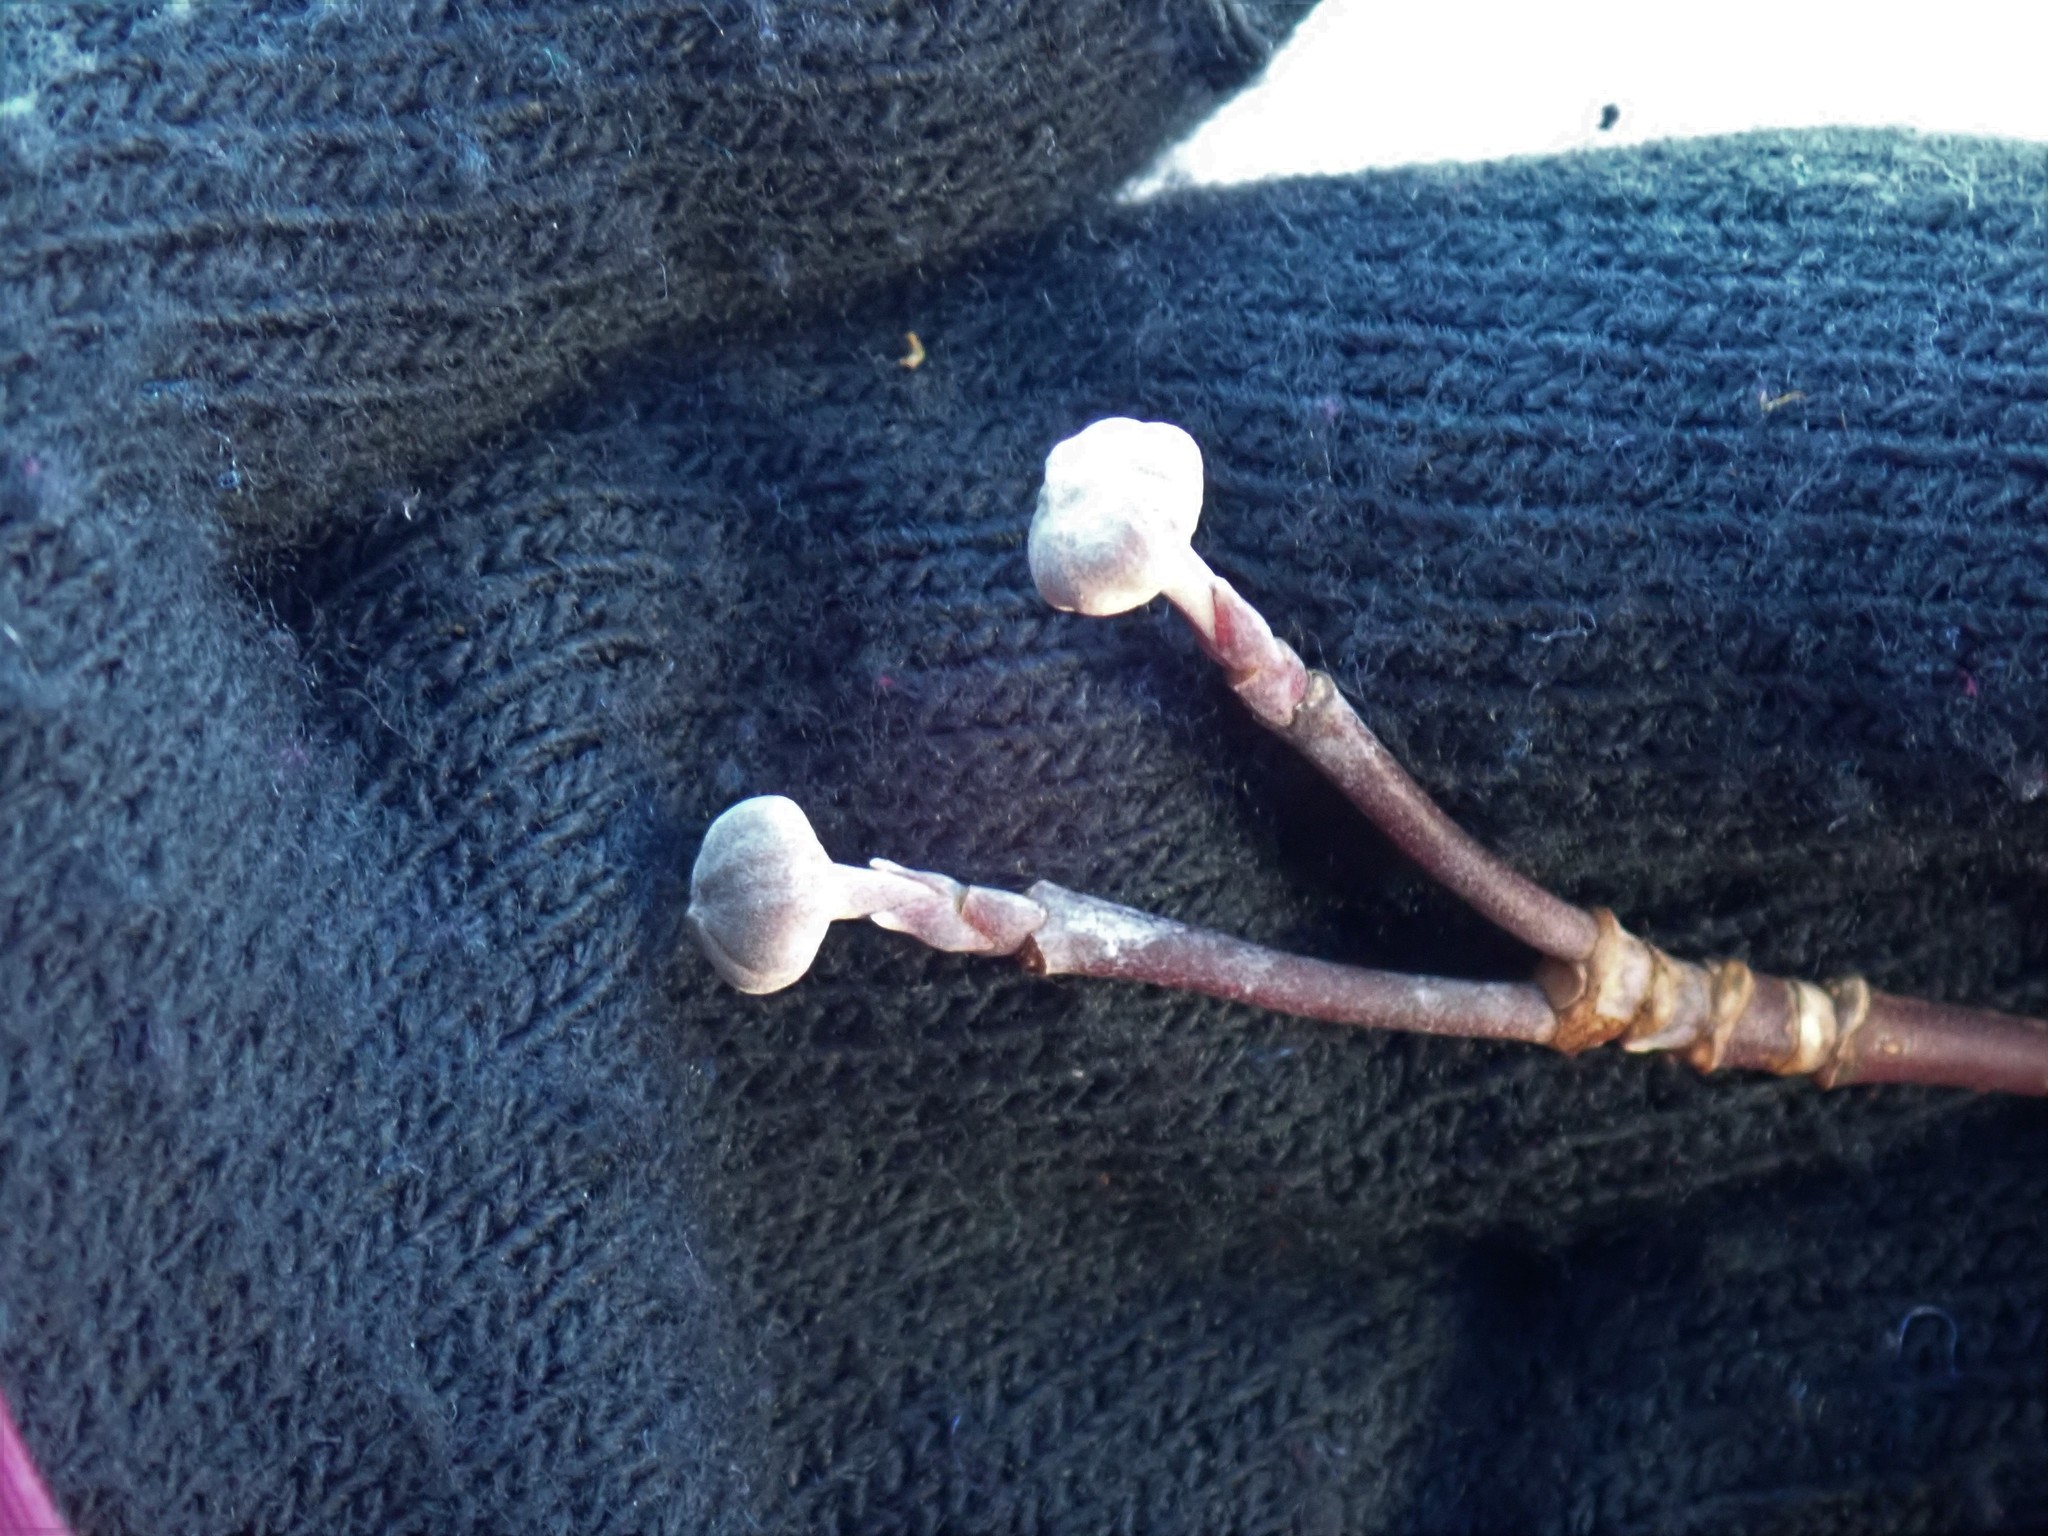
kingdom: Plantae
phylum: Tracheophyta
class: Magnoliopsida
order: Cornales
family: Cornaceae
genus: Cornus
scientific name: Cornus florida
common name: Flowering dogwood
